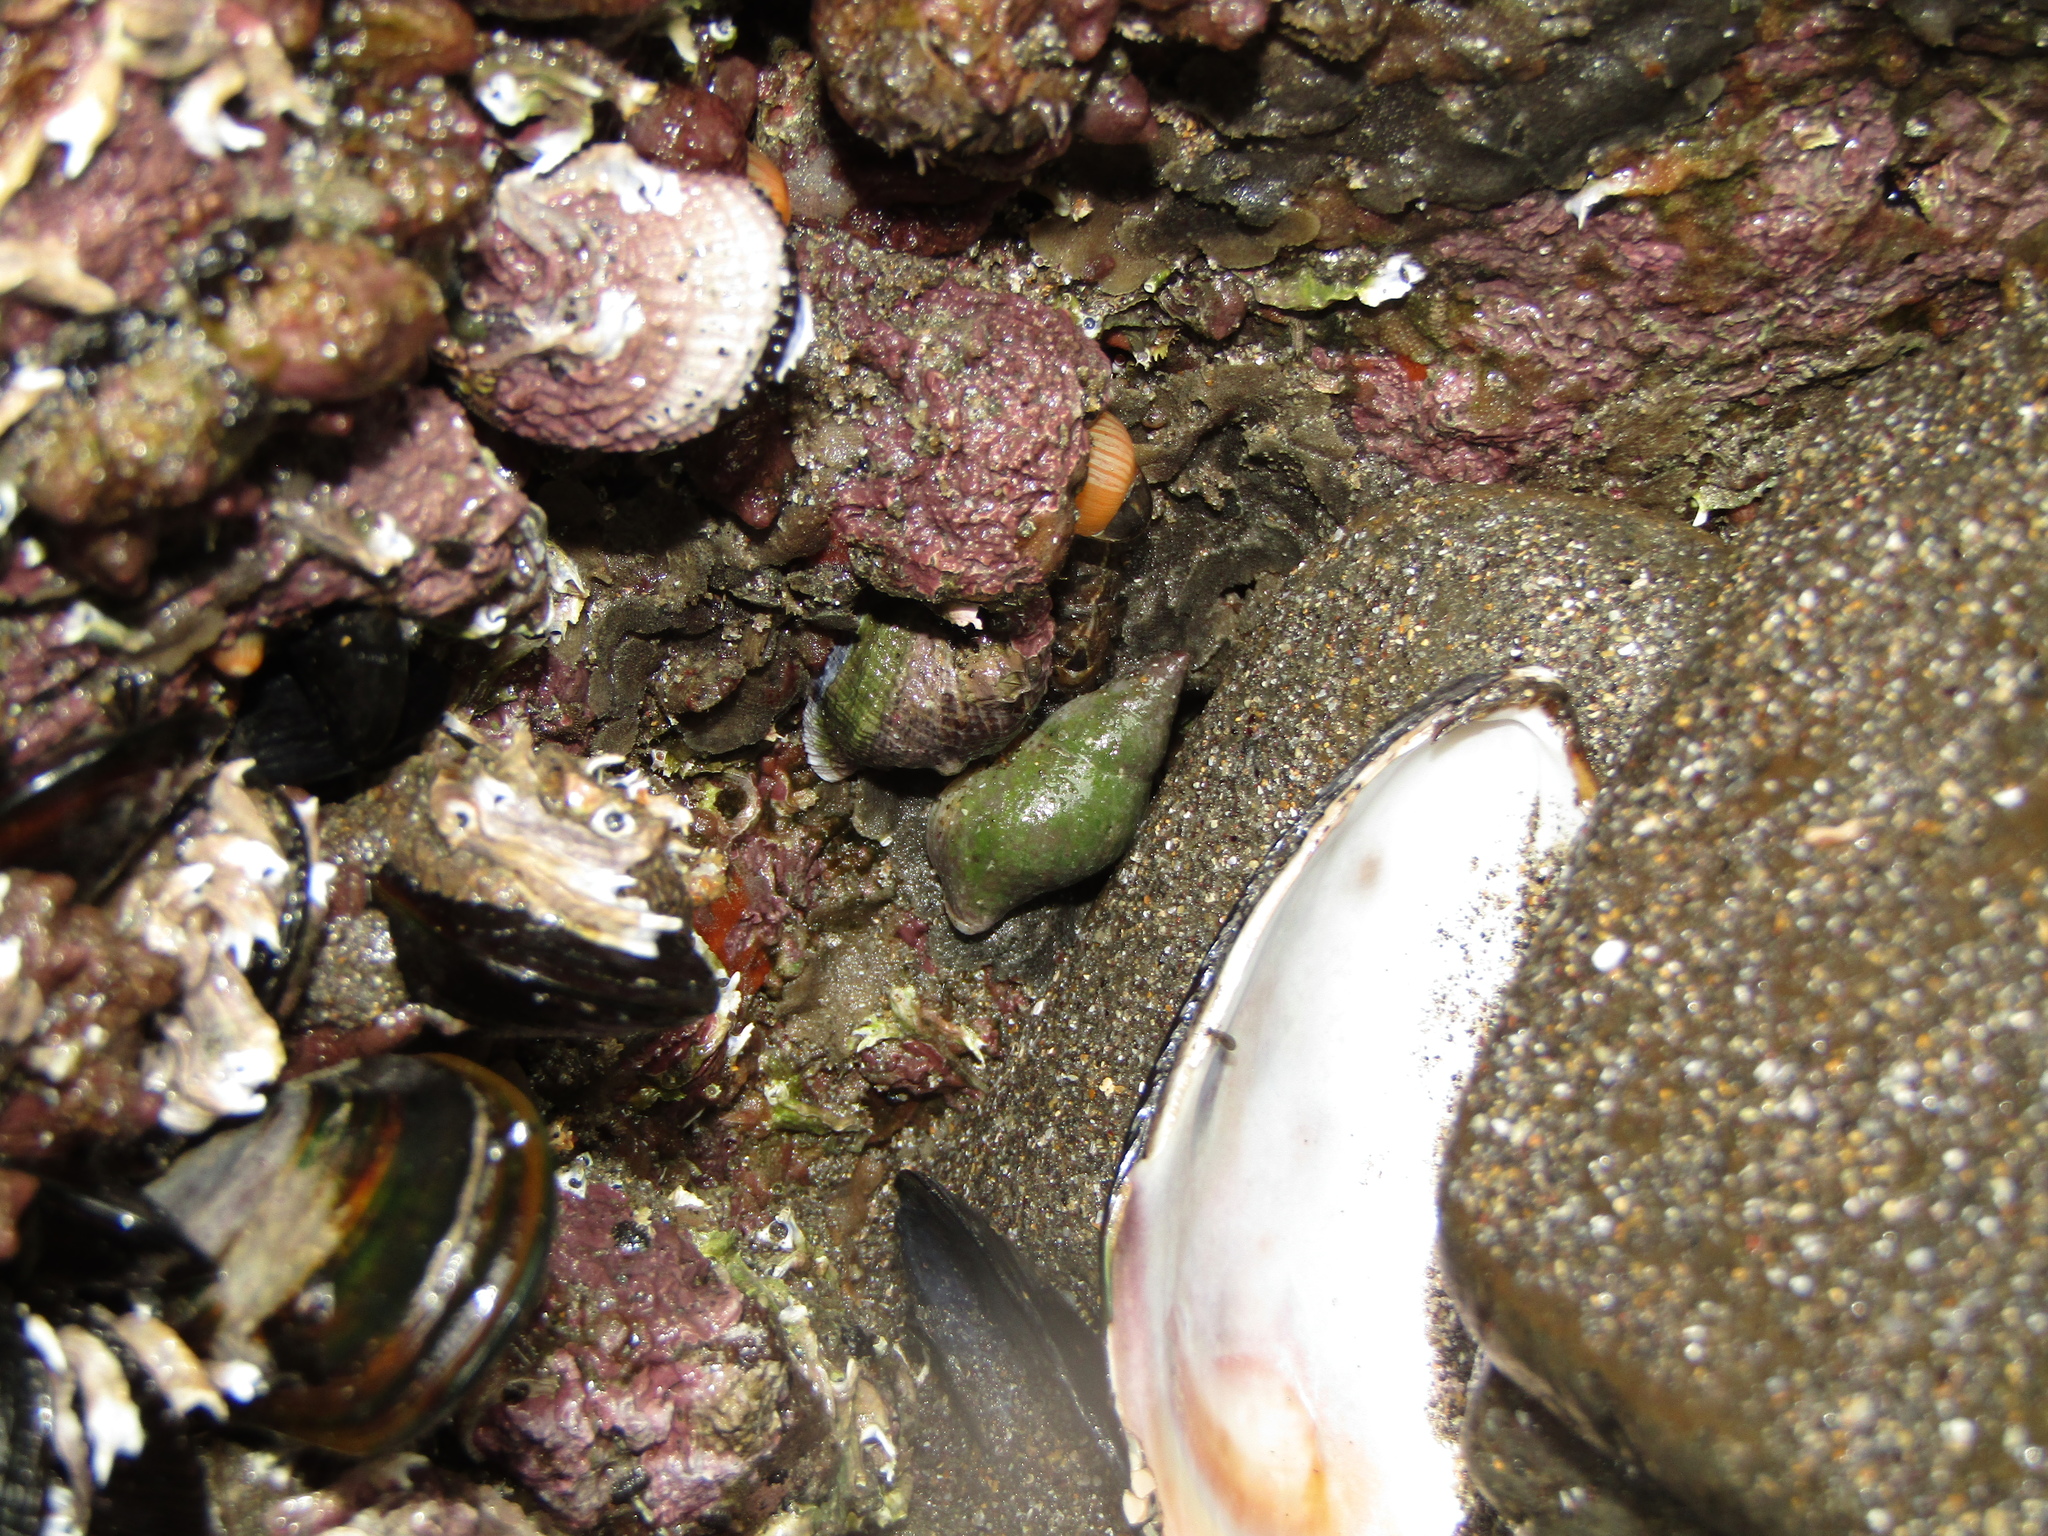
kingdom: Animalia
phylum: Mollusca
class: Gastropoda
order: Neogastropoda
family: Tudiclidae
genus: Buccinulum
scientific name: Buccinulum littorinoides
